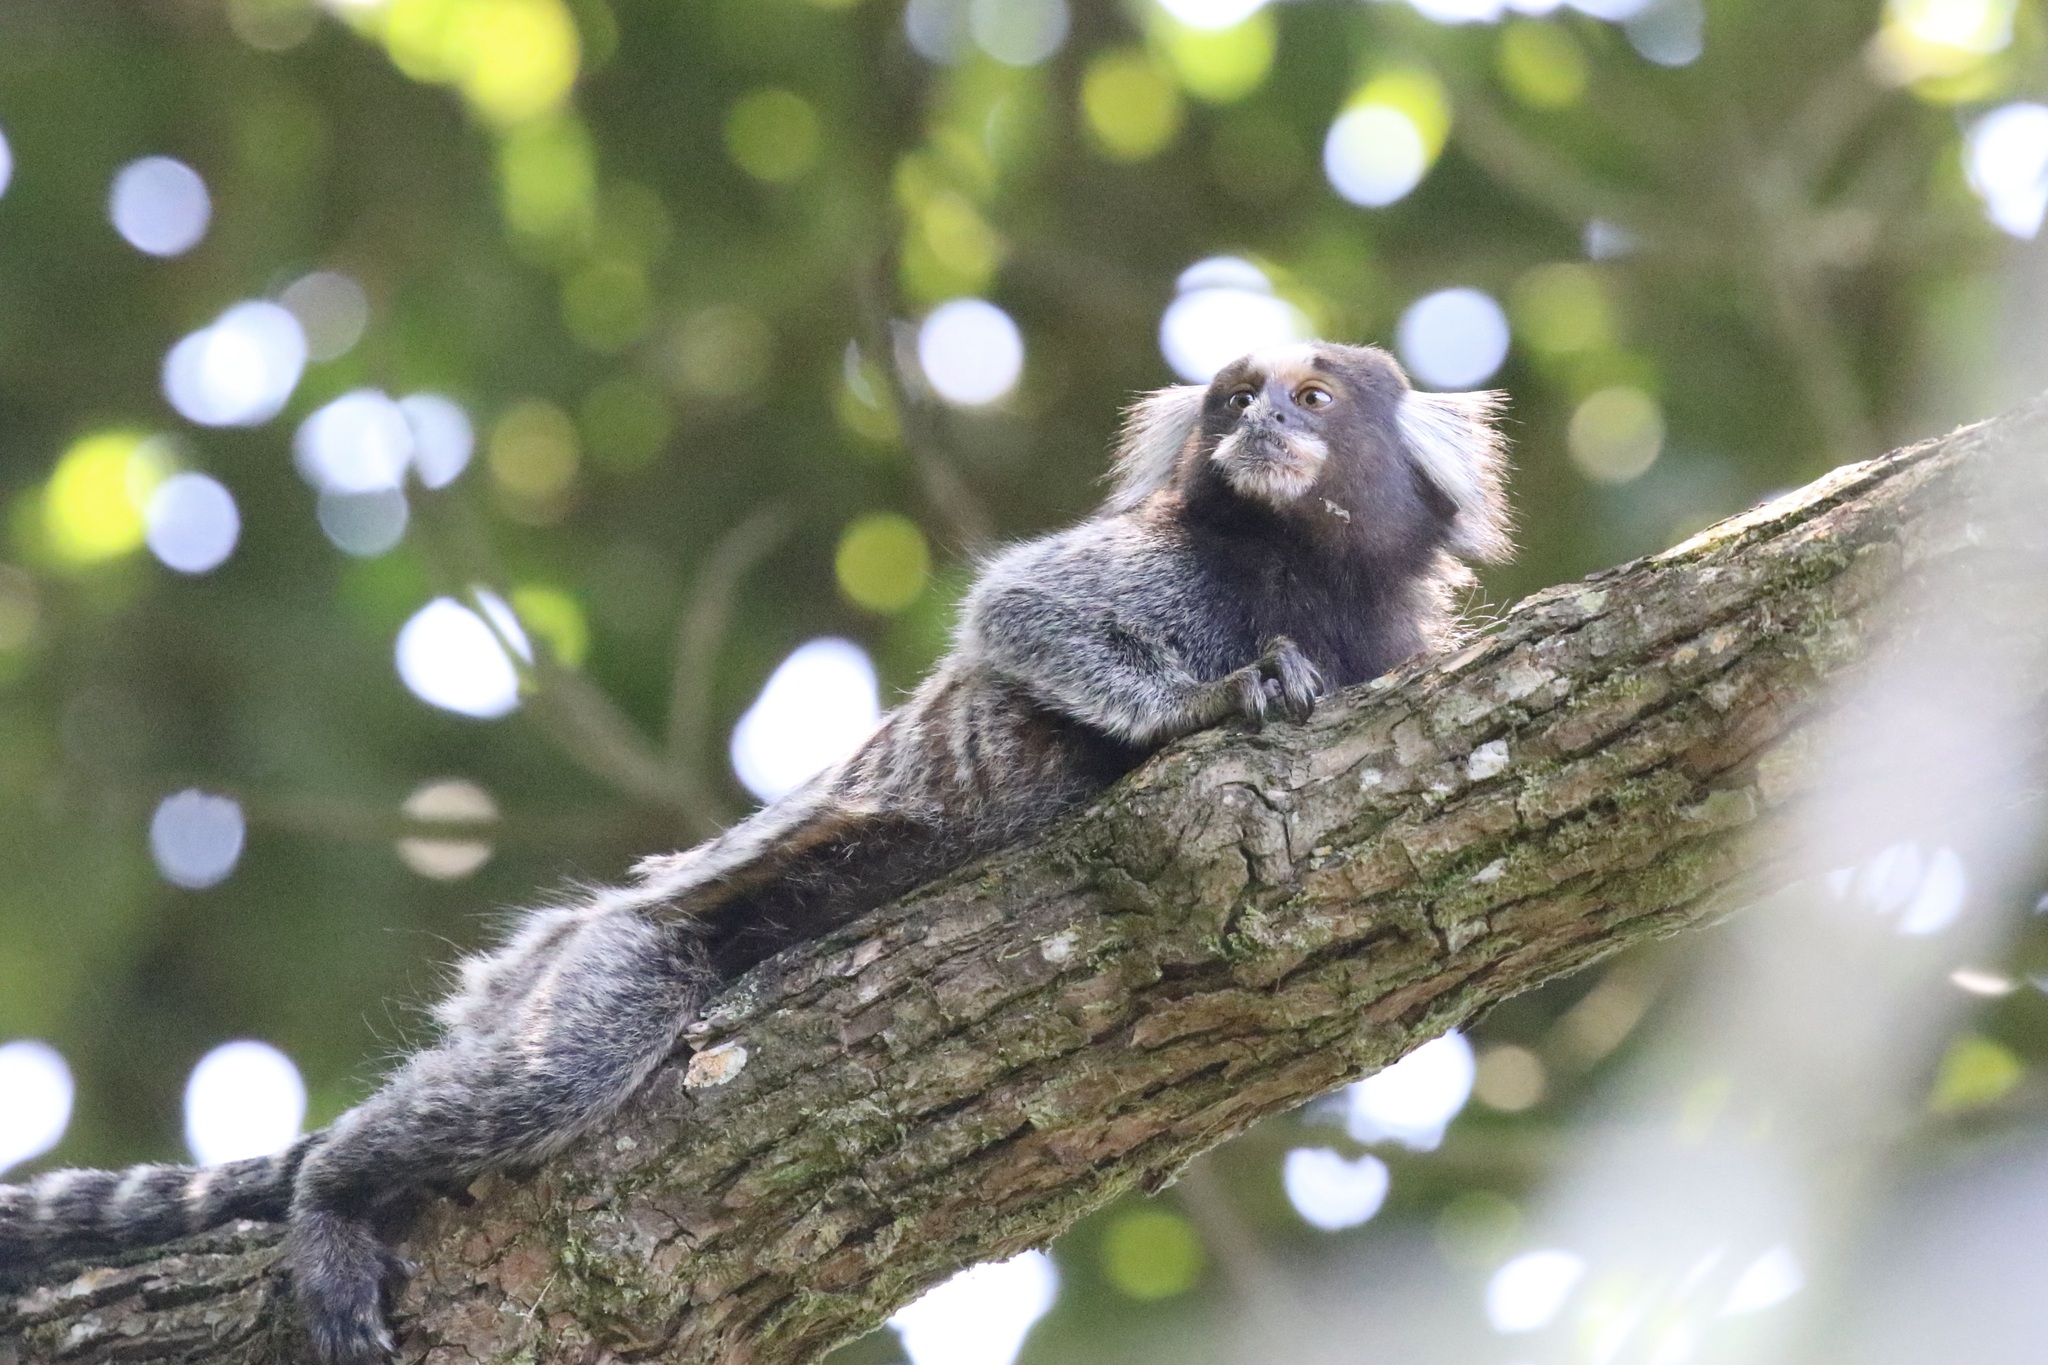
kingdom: Animalia
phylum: Chordata
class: Mammalia
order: Primates
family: Callitrichidae
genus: Callithrix
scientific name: Callithrix jacchus
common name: Common marmoset
